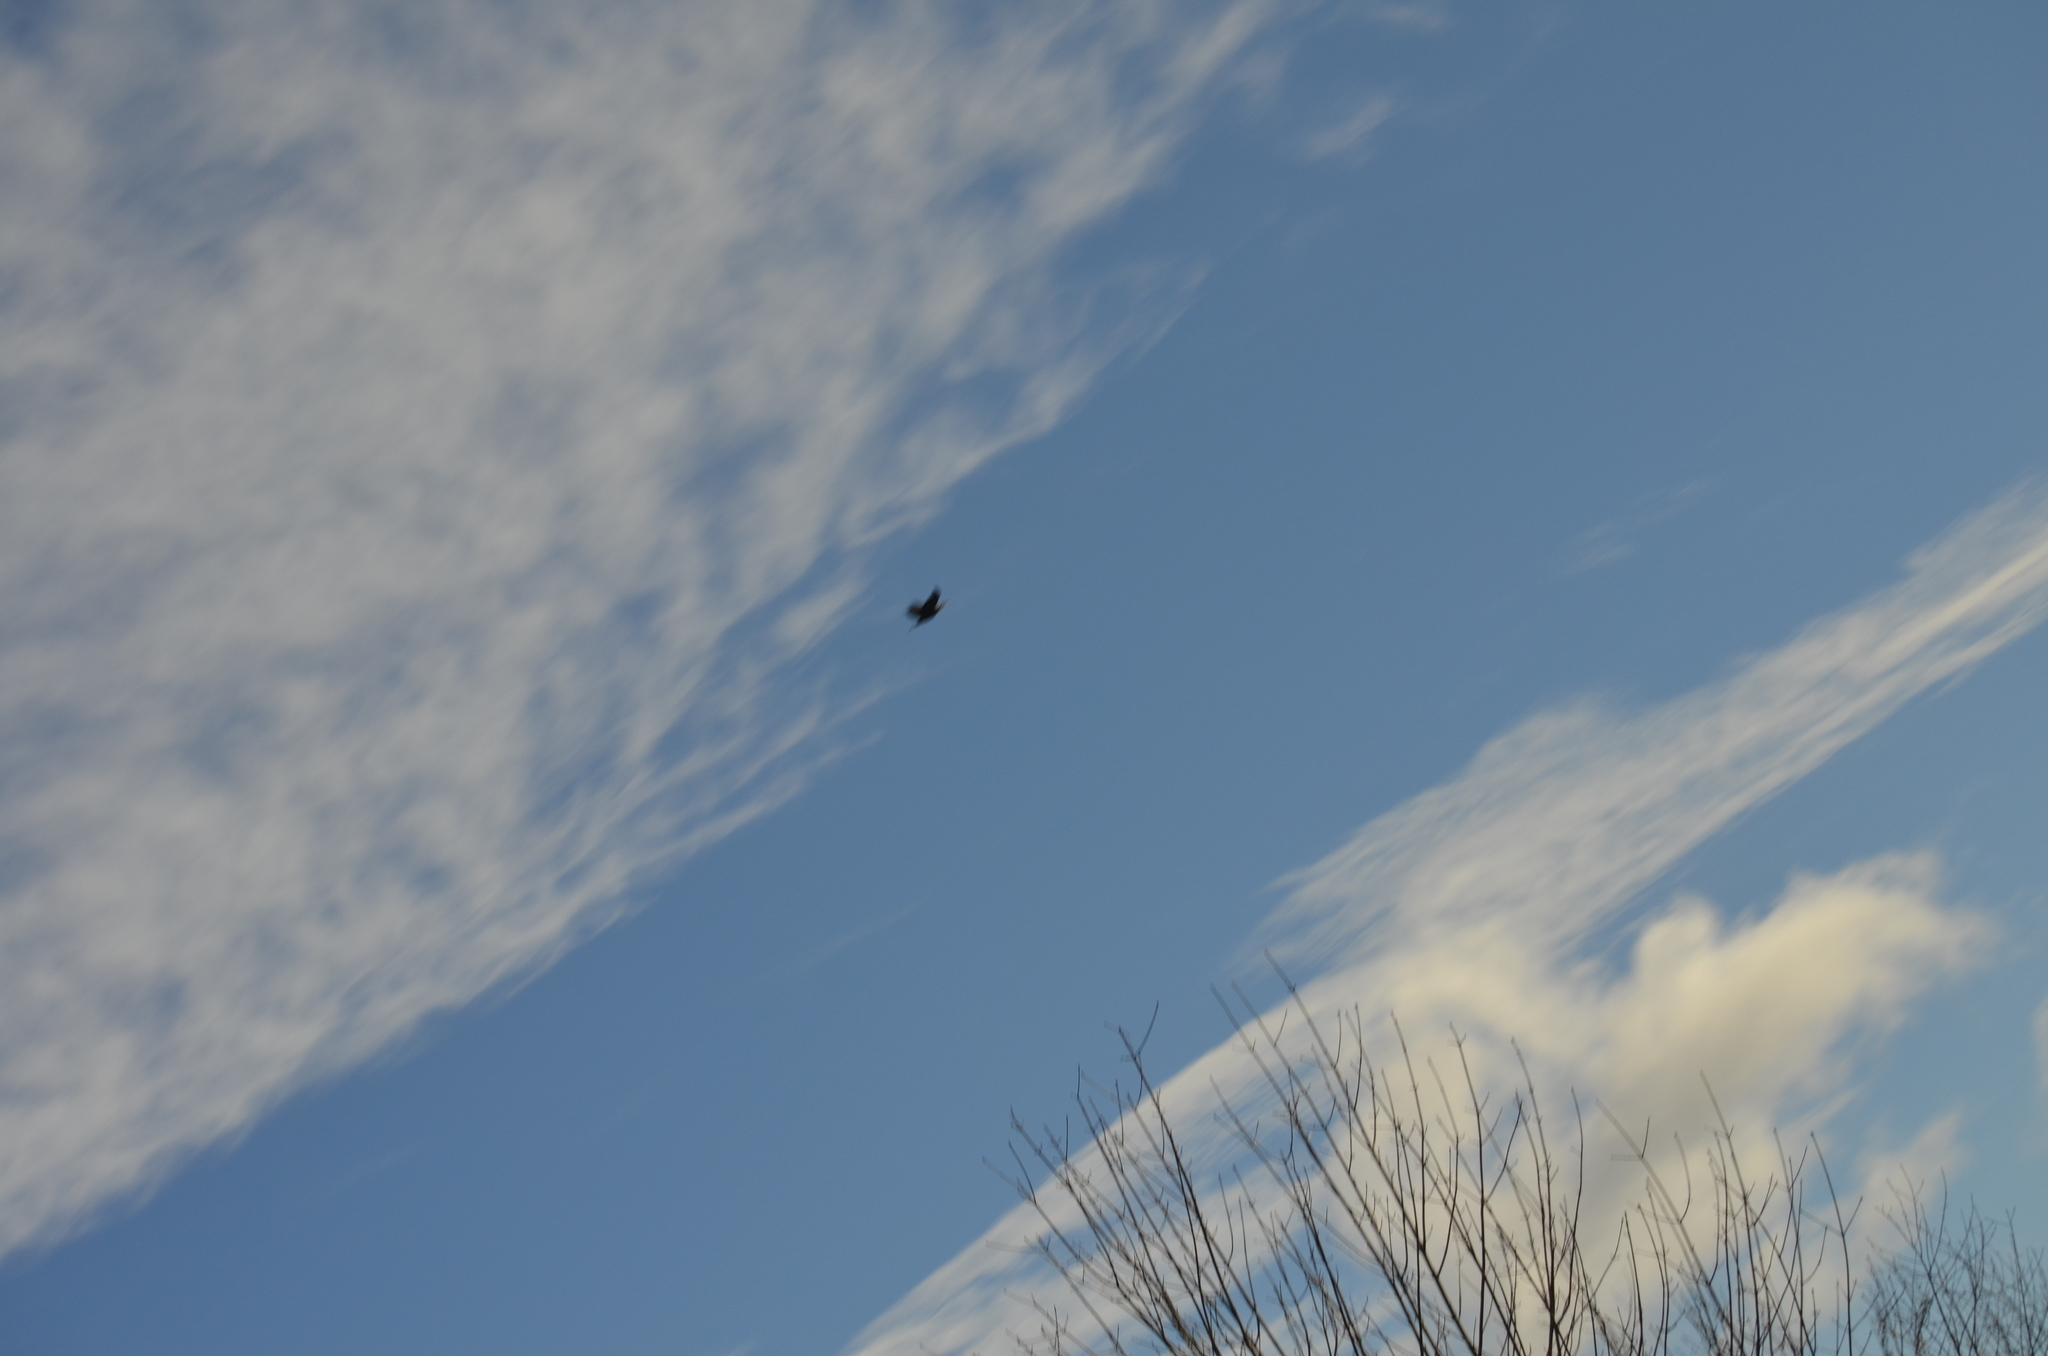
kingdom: Animalia
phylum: Chordata
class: Aves
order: Accipitriformes
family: Accipitridae
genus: Haliaeetus
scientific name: Haliaeetus leucocephalus
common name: Bald eagle
